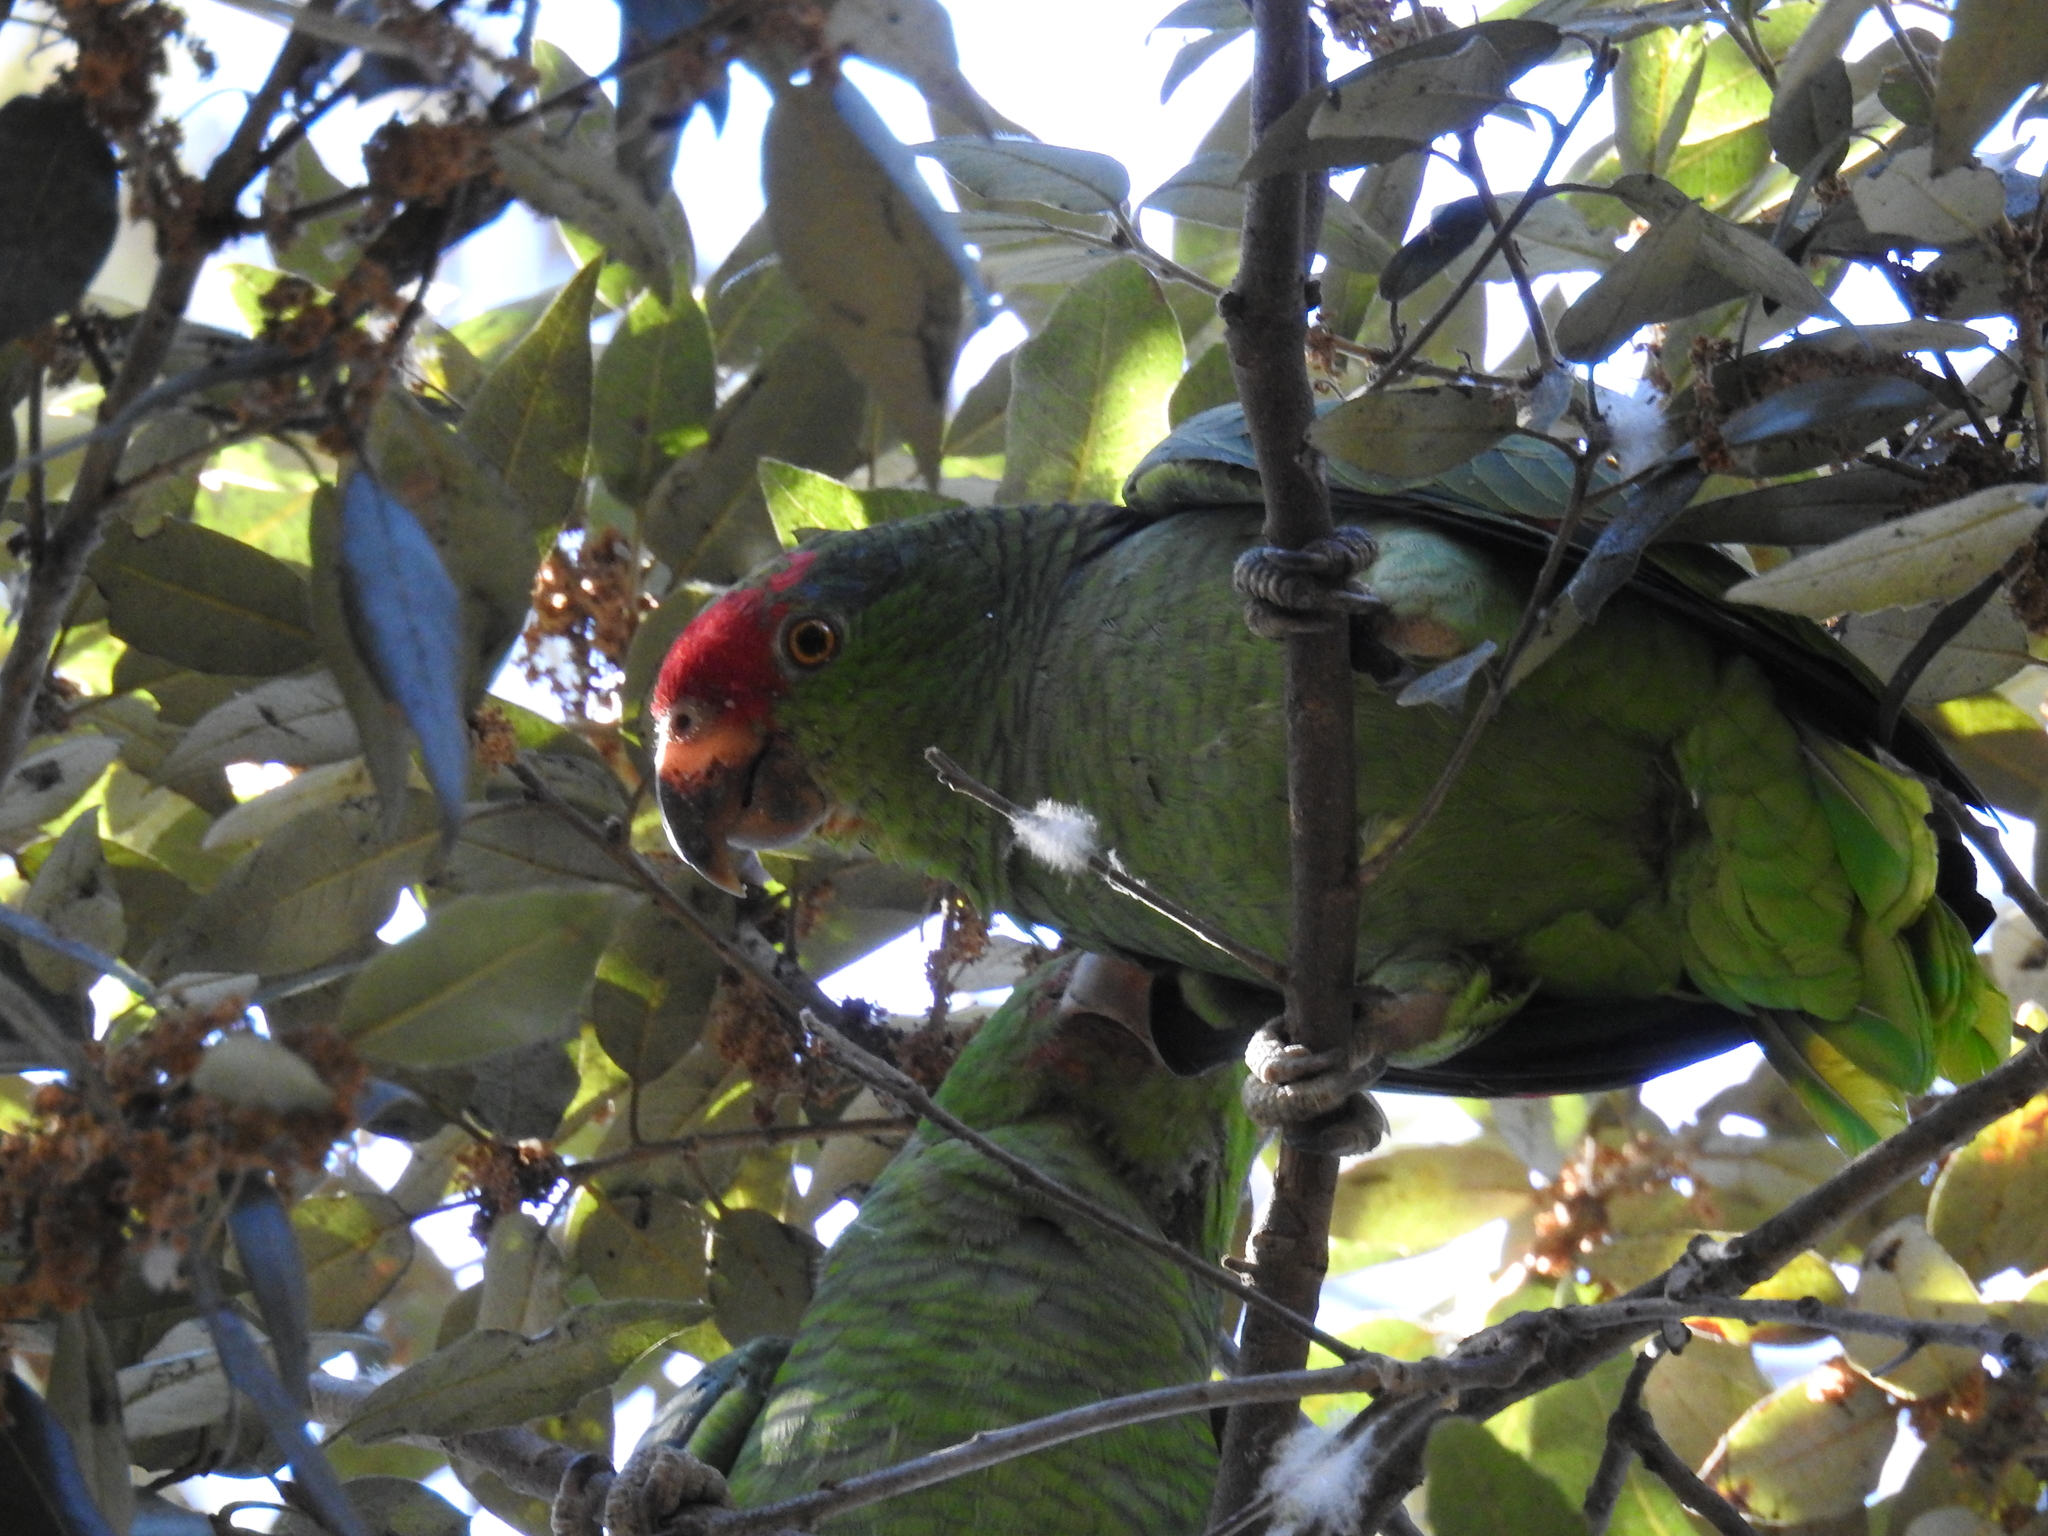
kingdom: Animalia
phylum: Chordata
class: Aves
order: Psittaciformes
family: Psittacidae
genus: Amazona
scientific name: Amazona viridigenalis
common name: Red-crowned amazon
